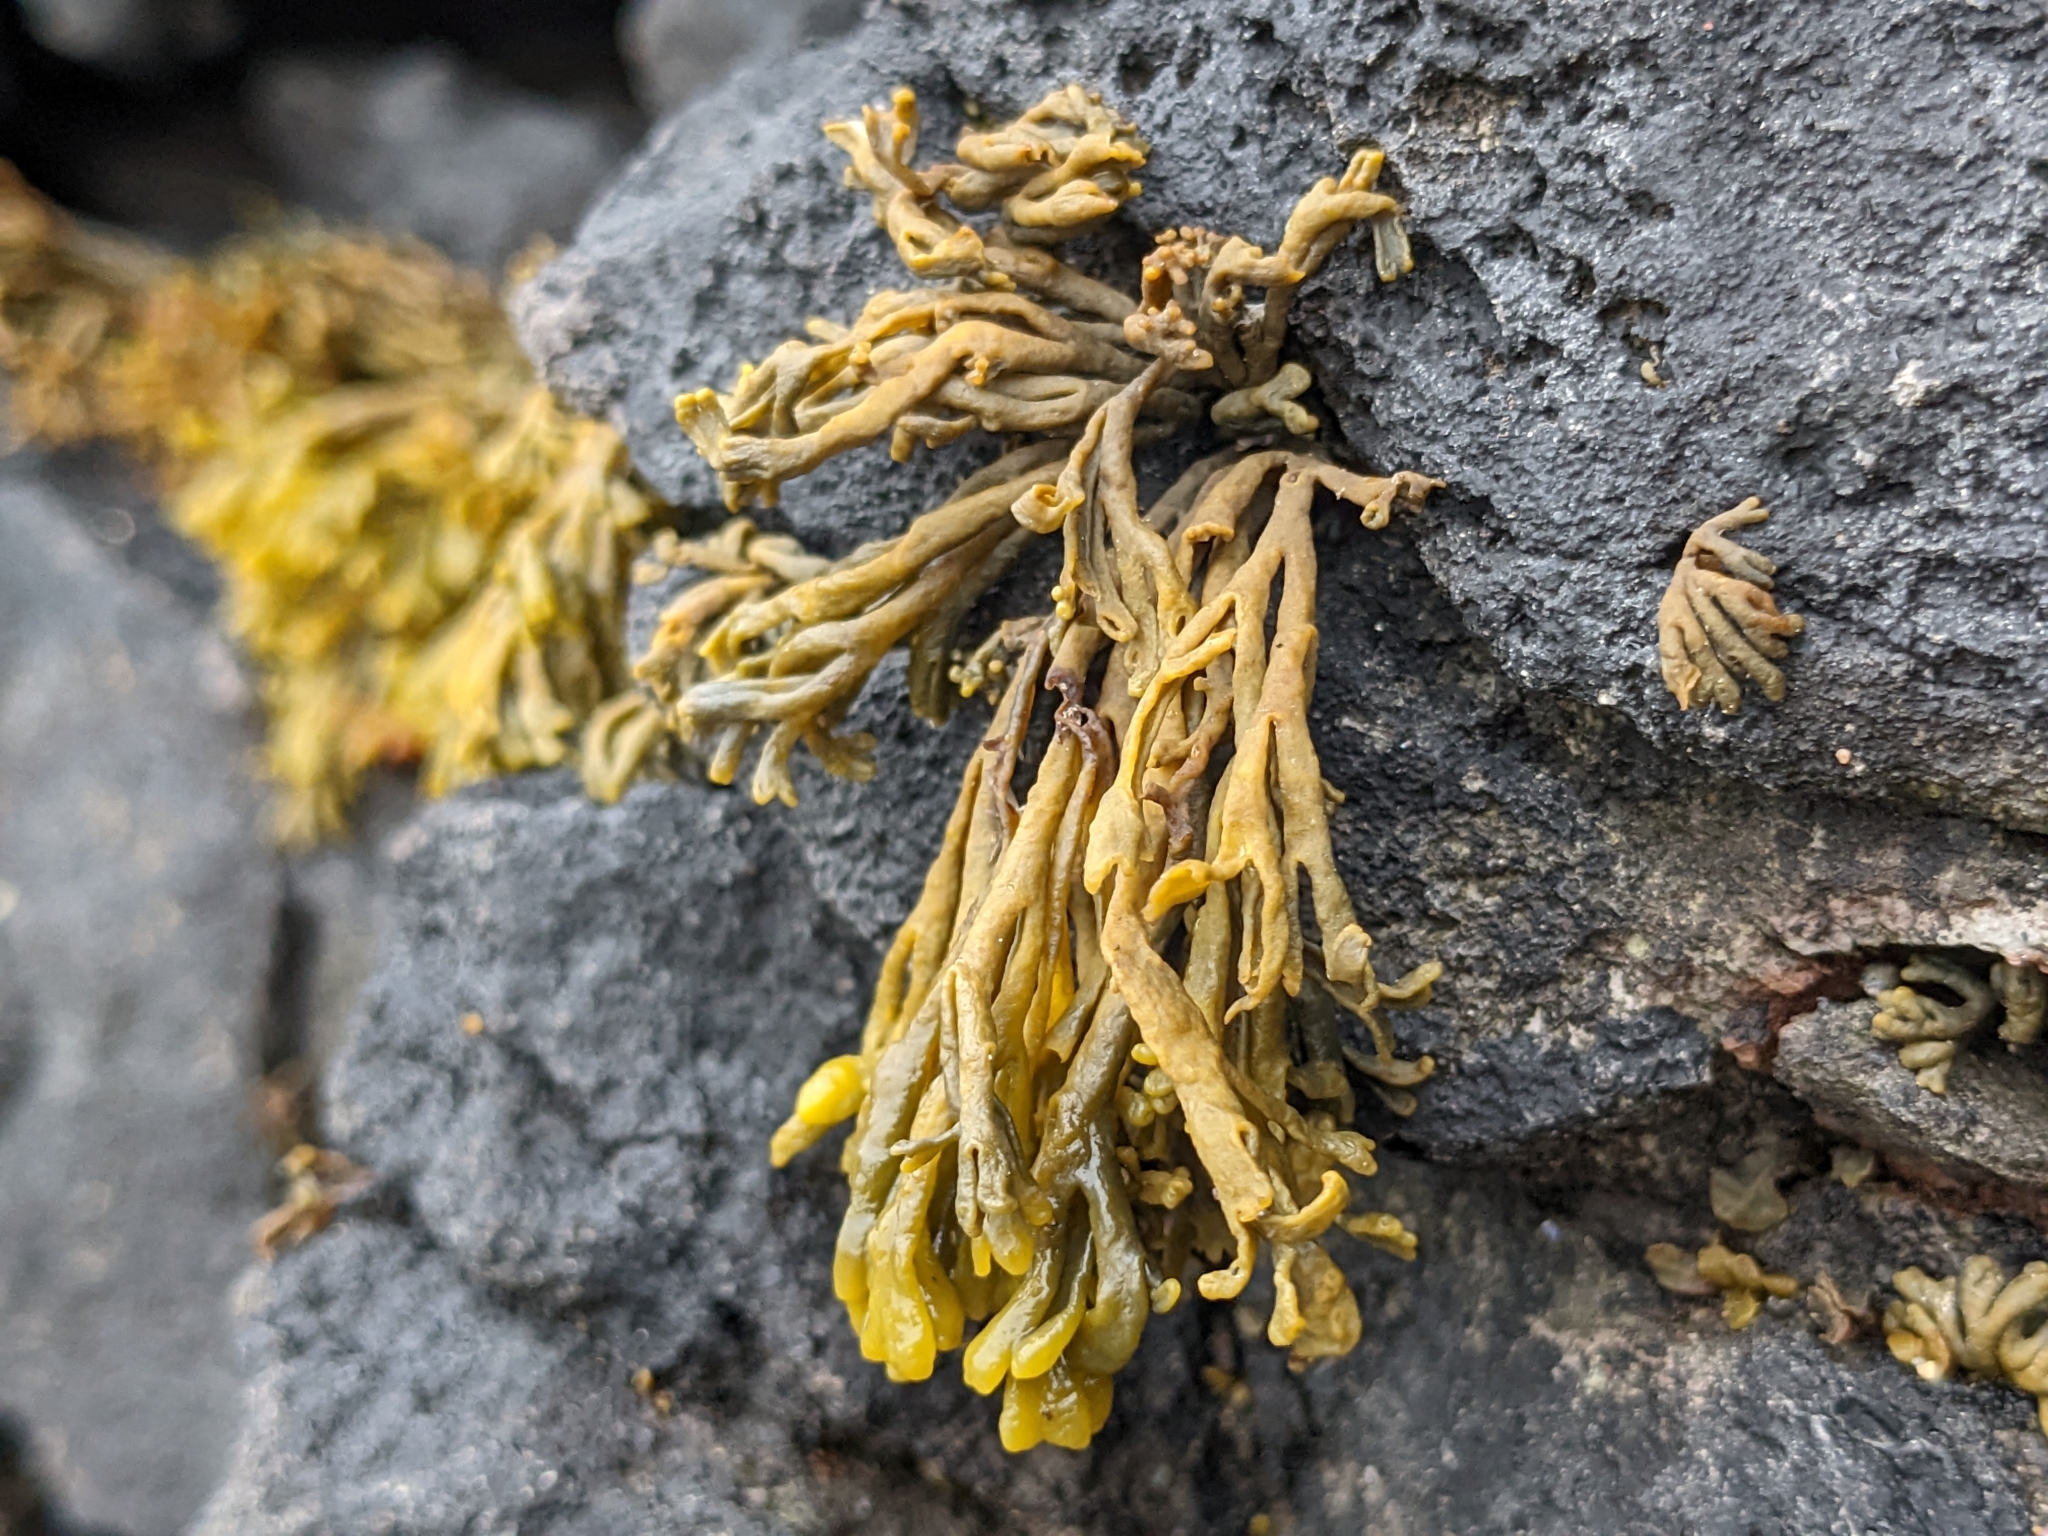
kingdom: Chromista
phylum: Ochrophyta
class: Phaeophyceae
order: Fucales
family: Fucaceae
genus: Pelvetia
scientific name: Pelvetia canaliculata
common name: Channelled wrack
